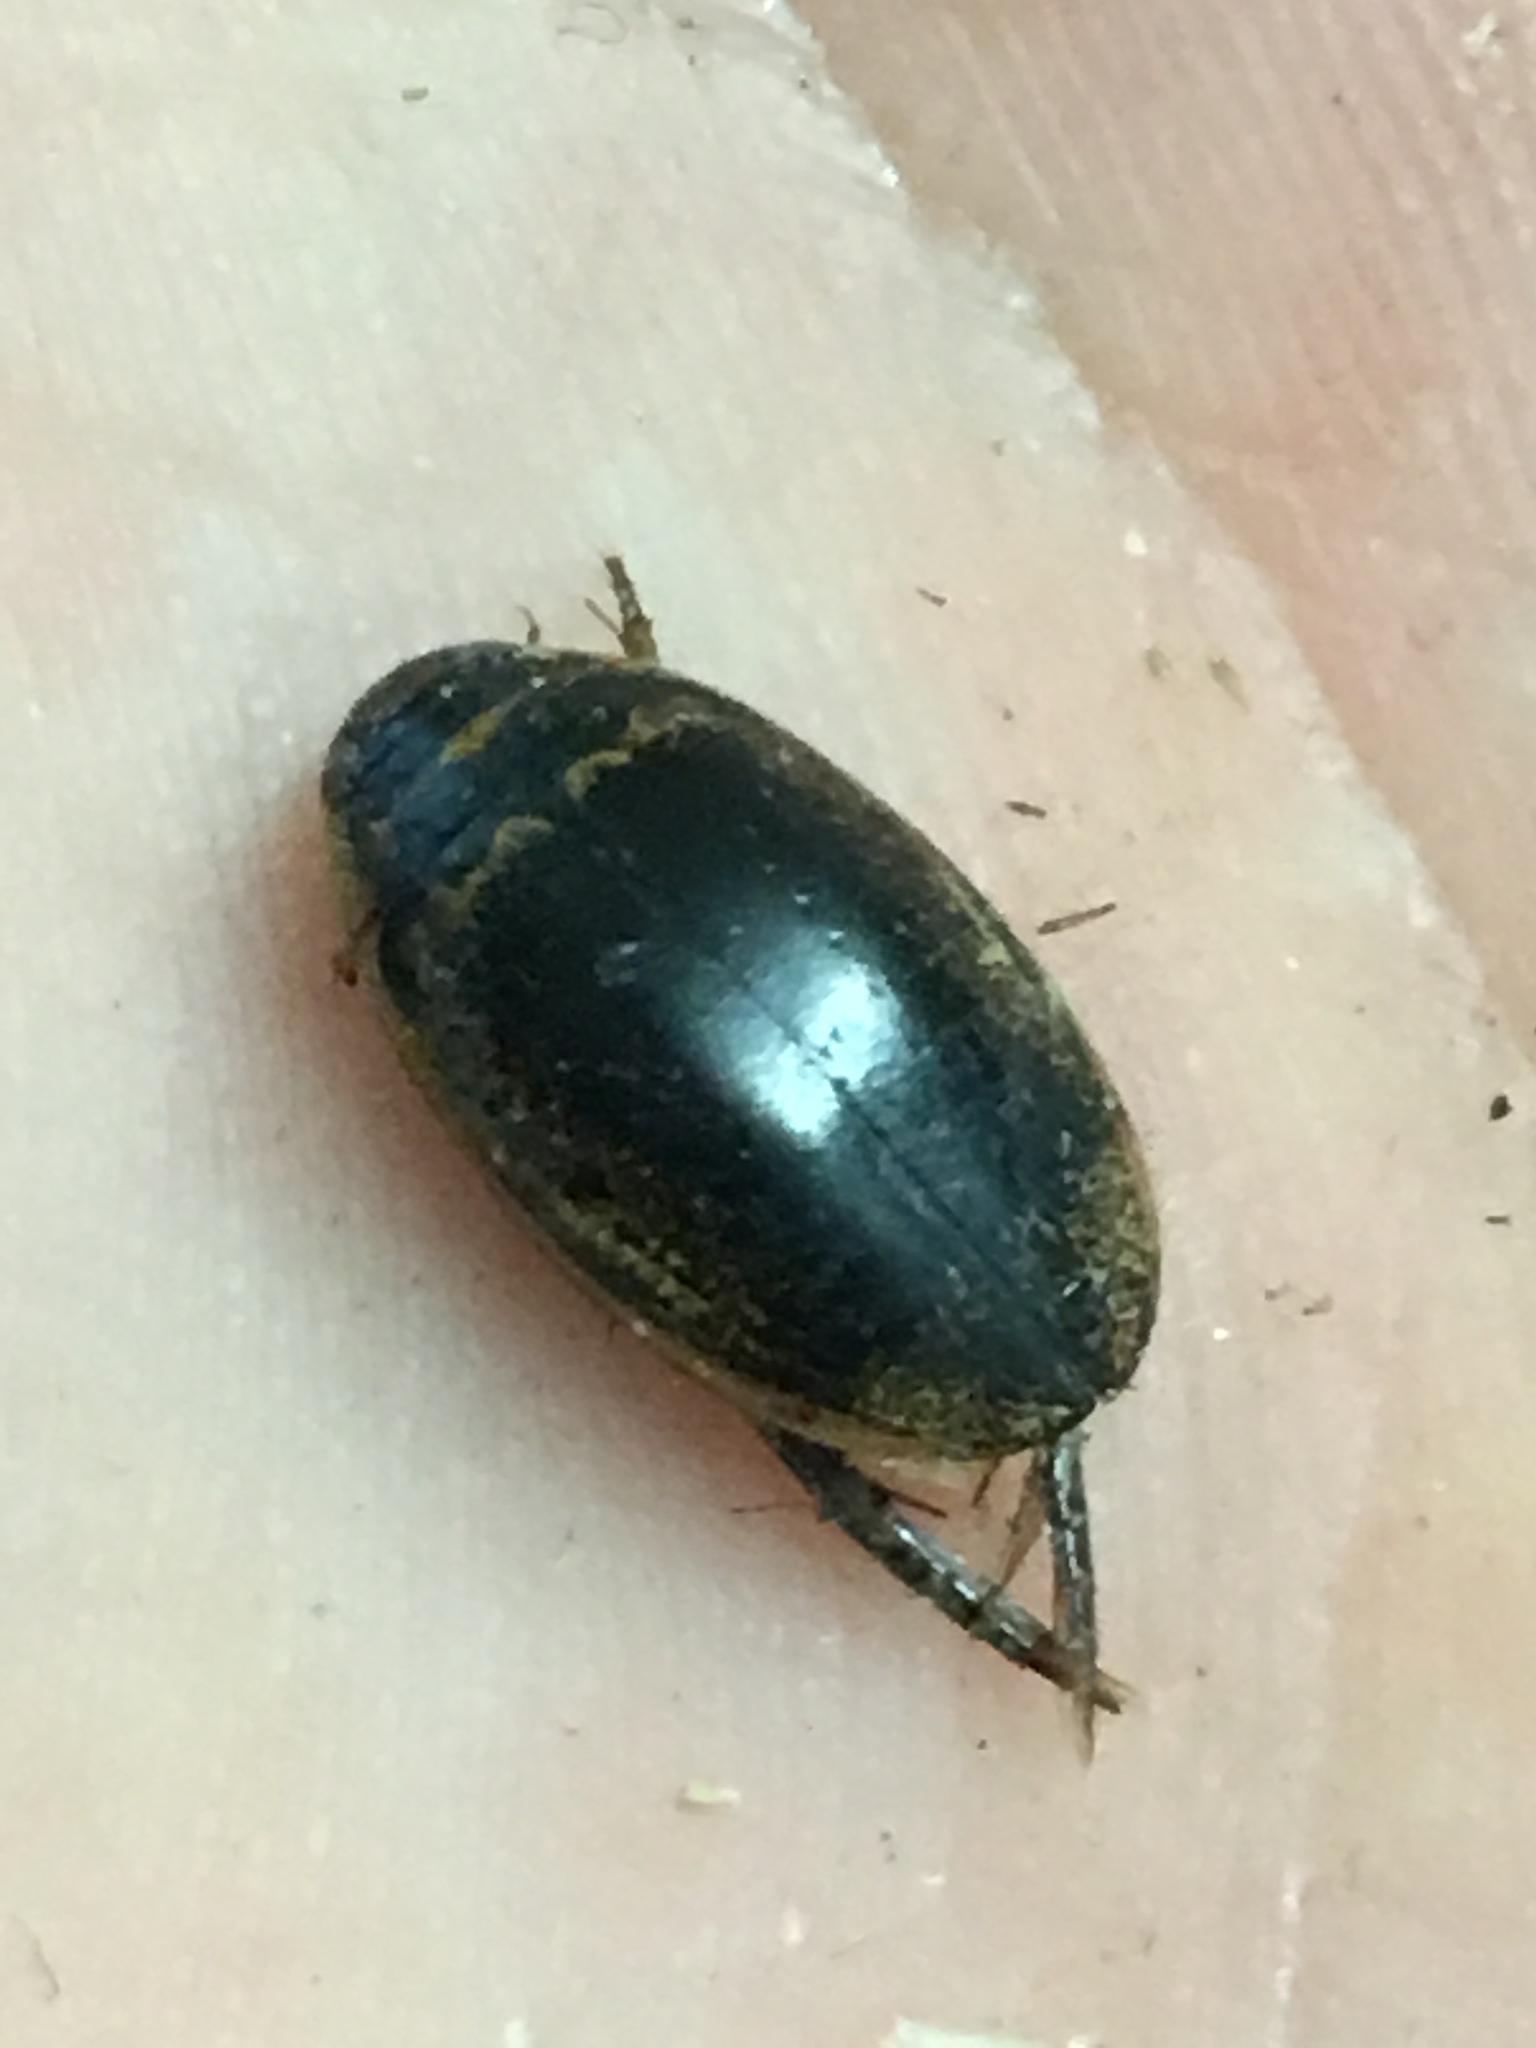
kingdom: Animalia
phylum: Arthropoda
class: Insecta
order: Coleoptera
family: Dytiscidae
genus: Thermonectus
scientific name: Thermonectus basillaris
